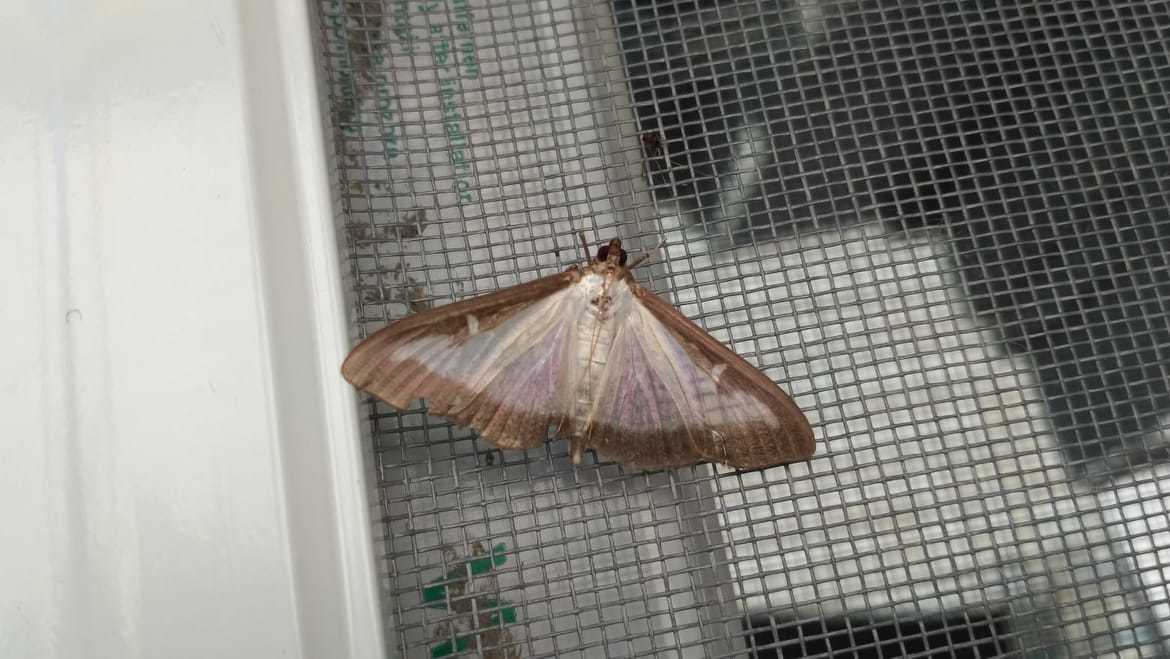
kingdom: Animalia
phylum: Arthropoda
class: Insecta
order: Lepidoptera
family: Crambidae
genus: Cydalima
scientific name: Cydalima perspectalis
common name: Box tree moth
